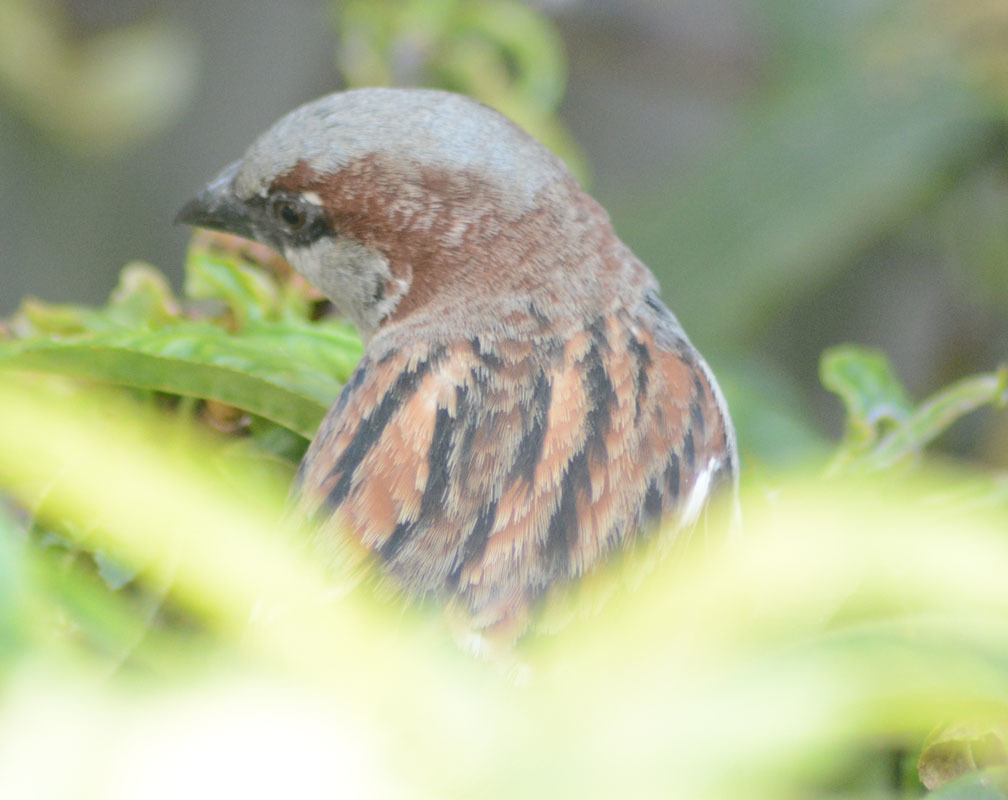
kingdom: Animalia
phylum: Chordata
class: Aves
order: Passeriformes
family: Passeridae
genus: Passer
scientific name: Passer domesticus
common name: House sparrow
